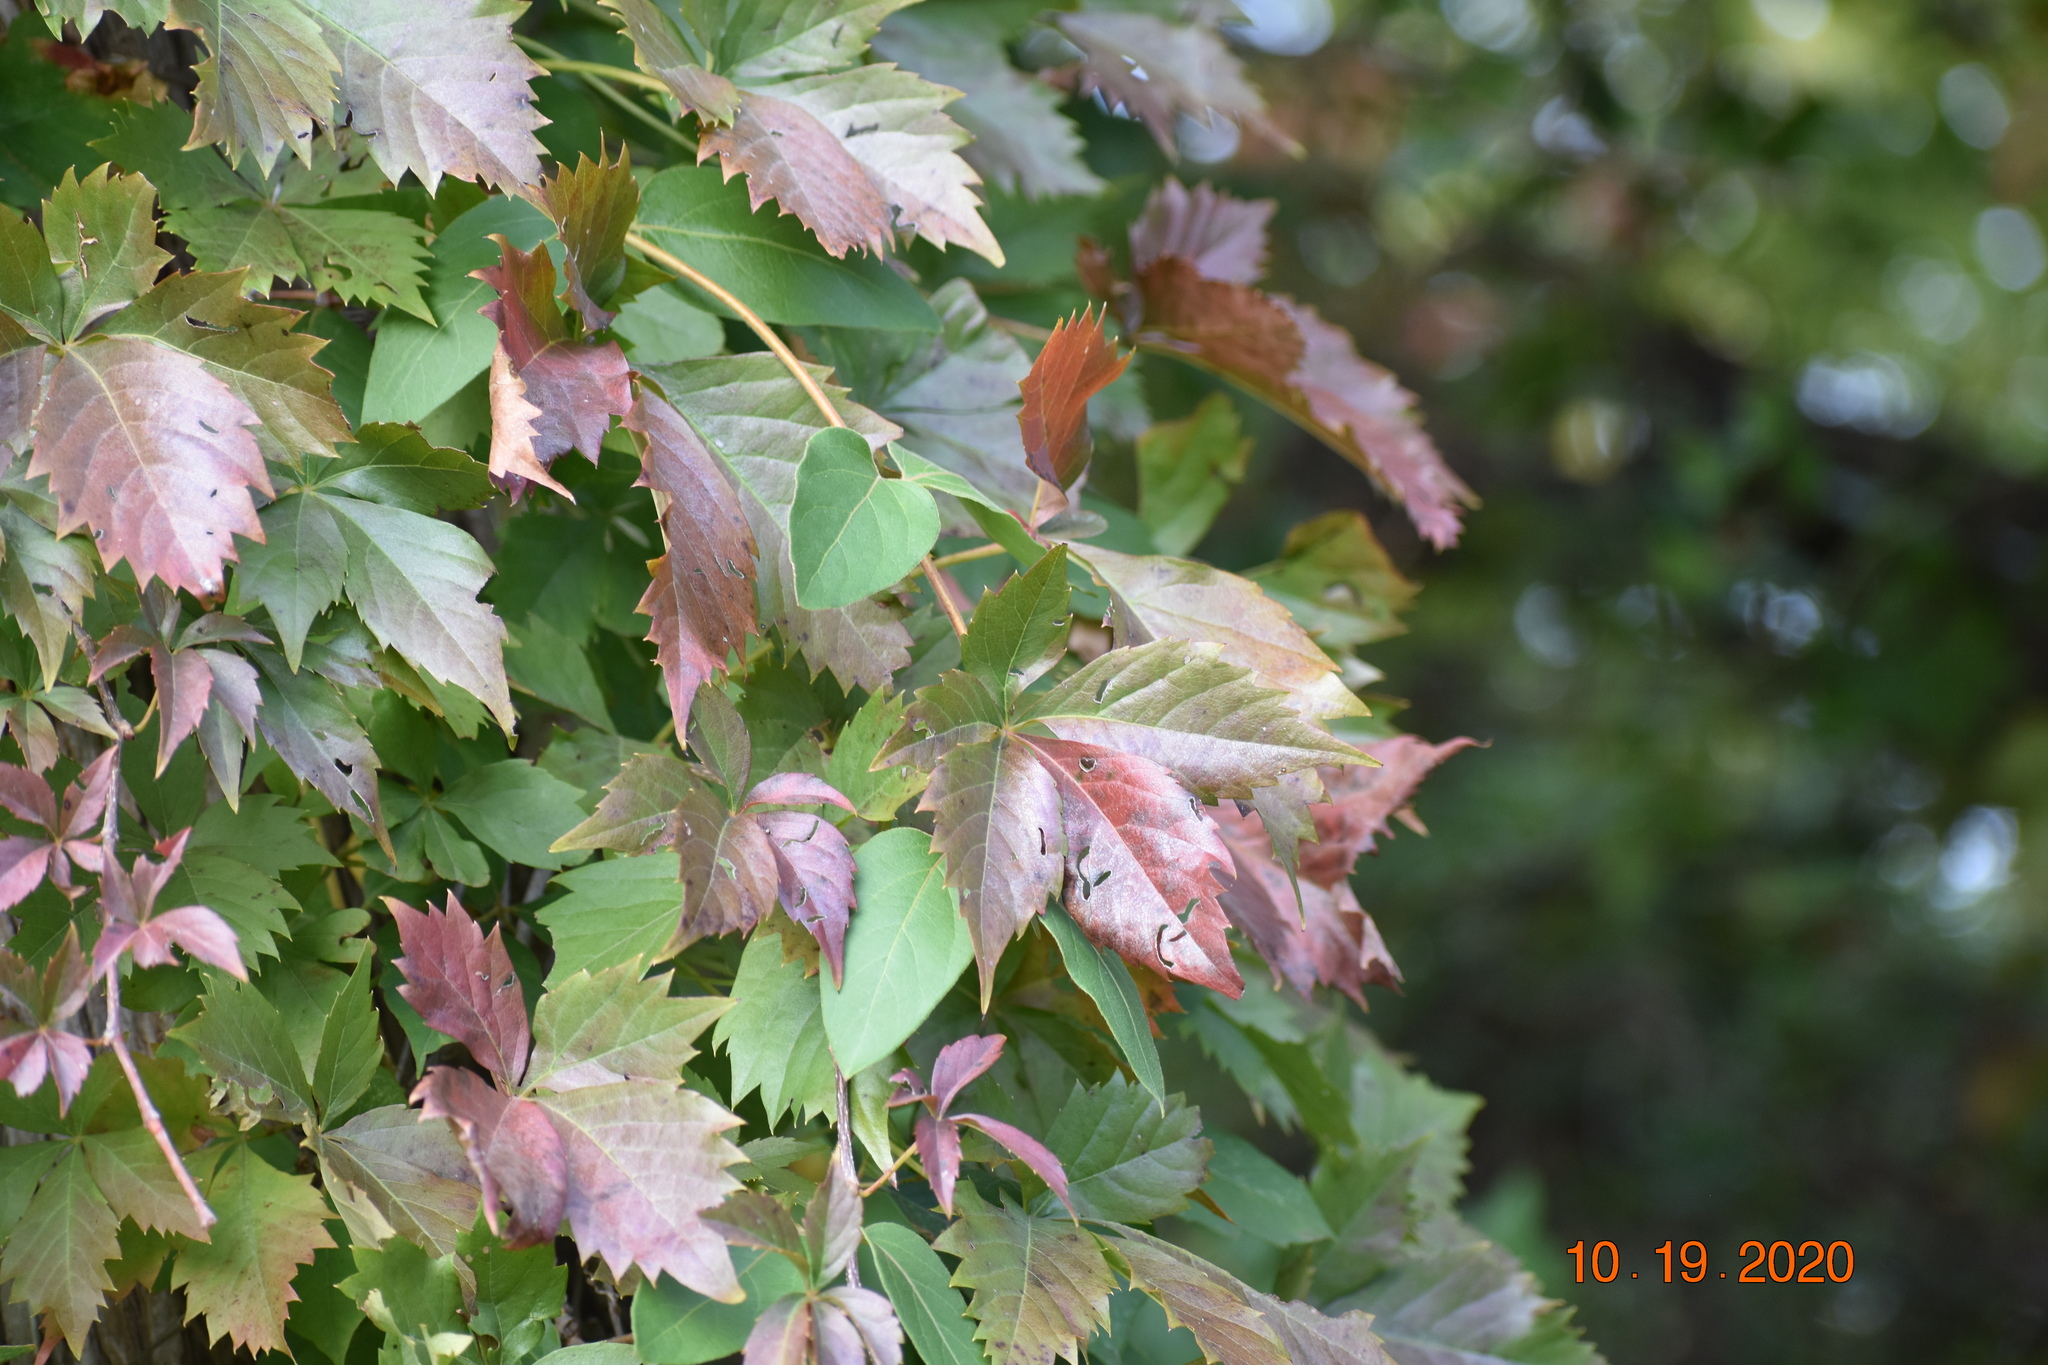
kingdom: Plantae
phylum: Tracheophyta
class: Magnoliopsida
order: Vitales
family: Vitaceae
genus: Parthenocissus
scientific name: Parthenocissus quinquefolia
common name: Virginia-creeper
